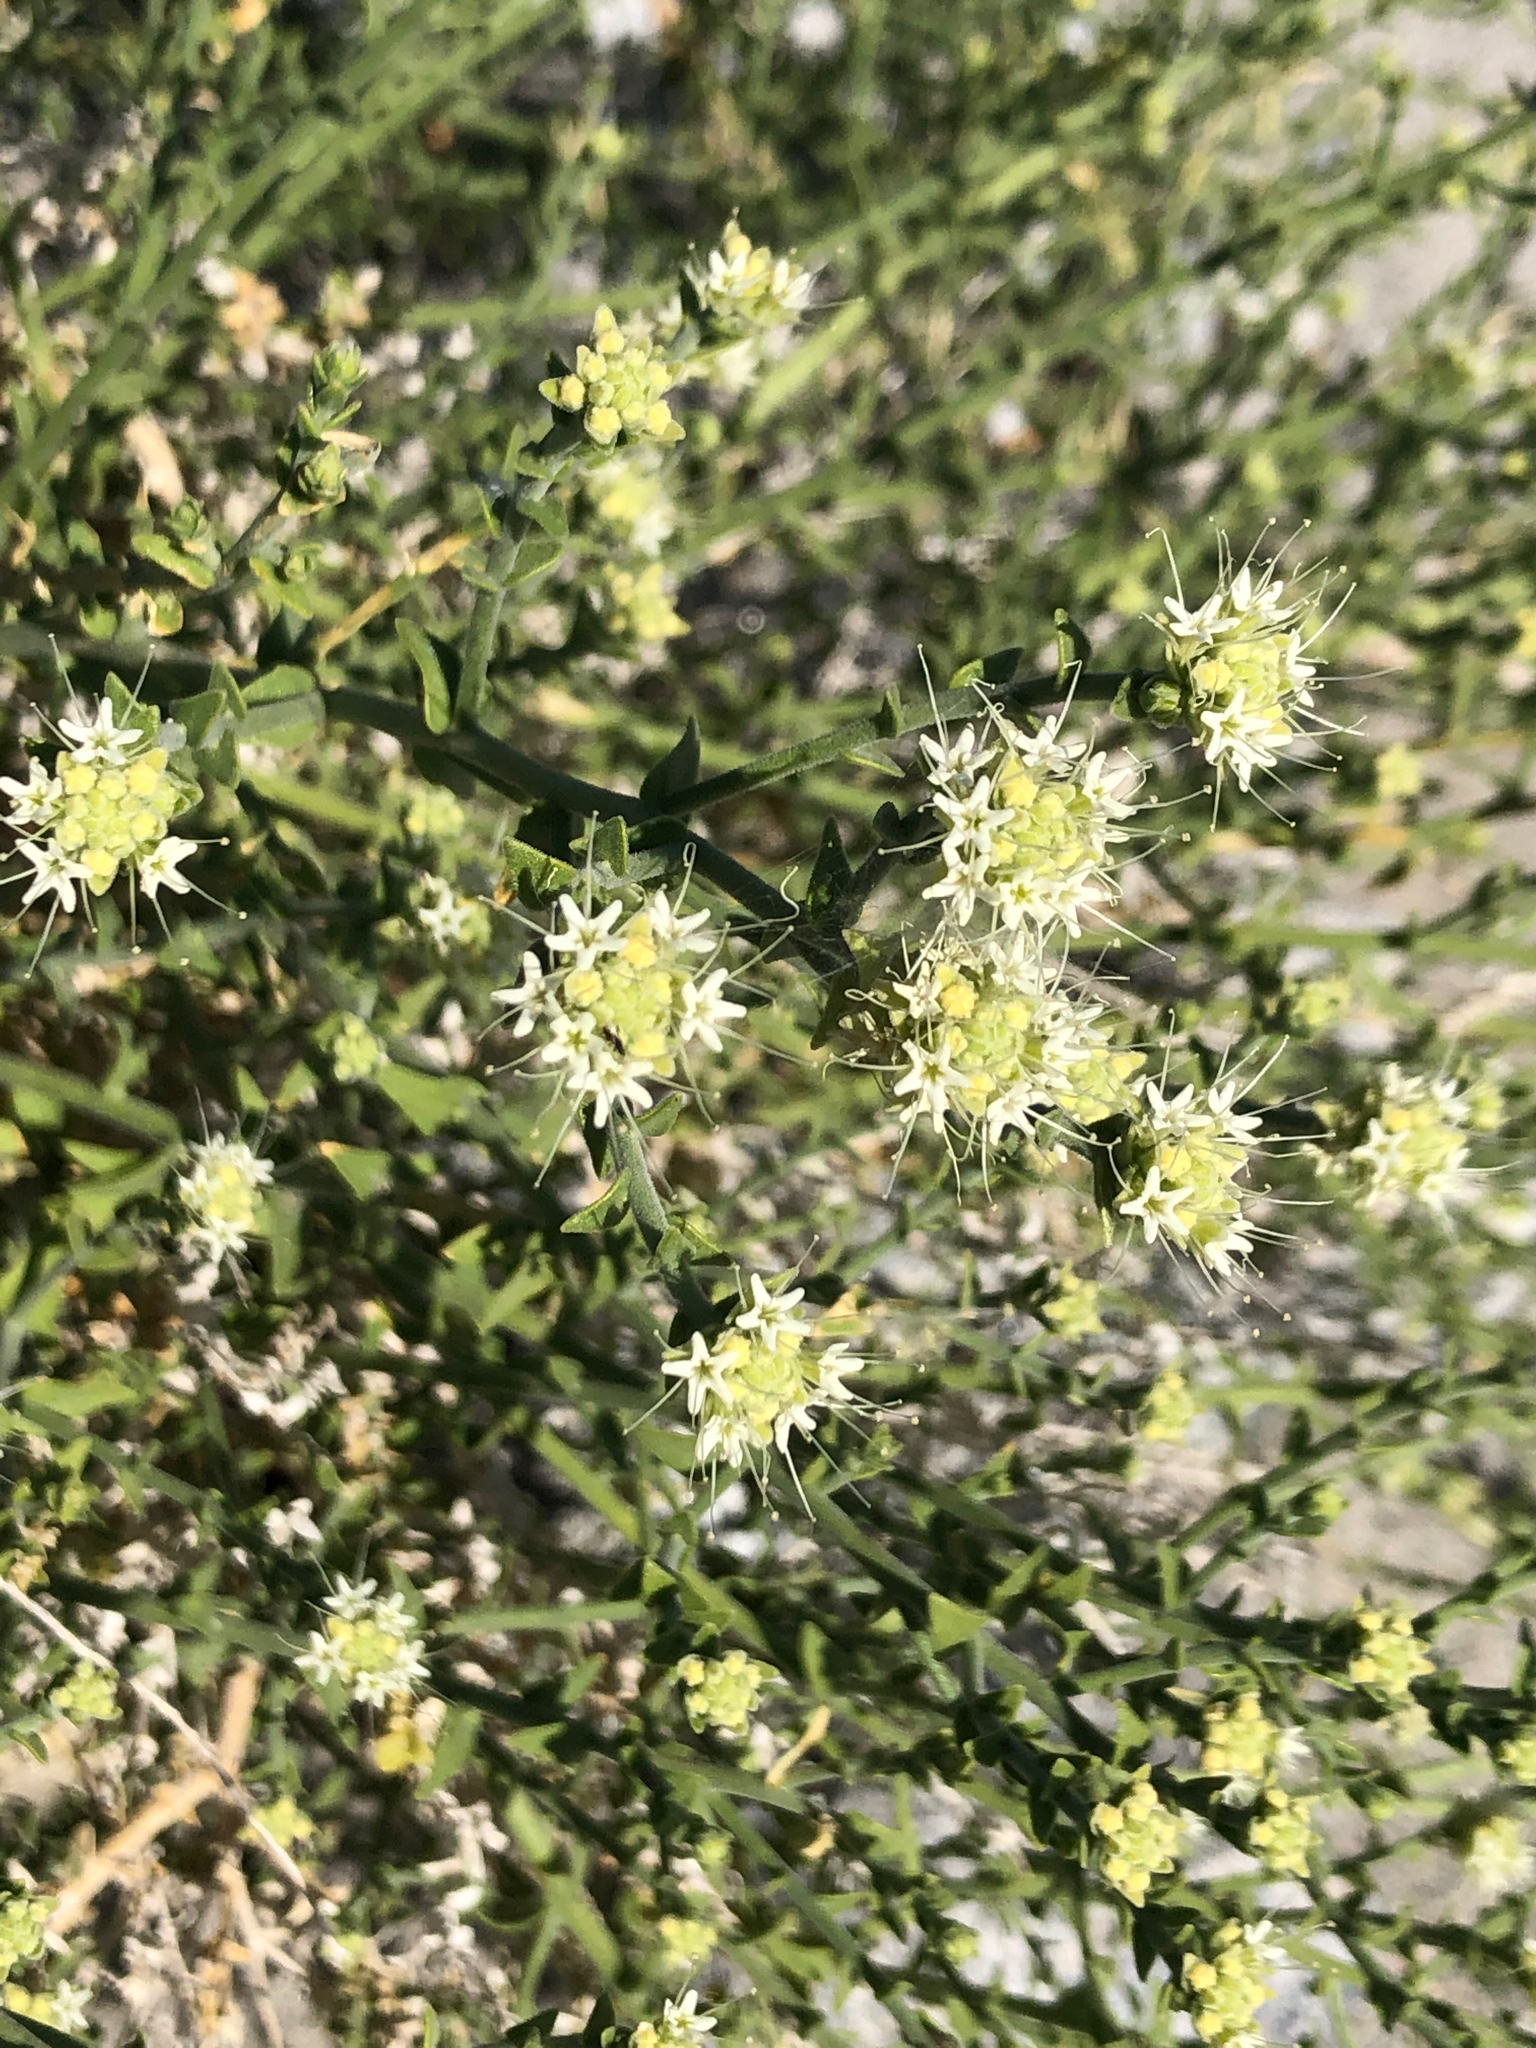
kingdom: Plantae
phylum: Tracheophyta
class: Magnoliopsida
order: Cornales
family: Loasaceae
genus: Petalonyx
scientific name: Petalonyx thurberi
